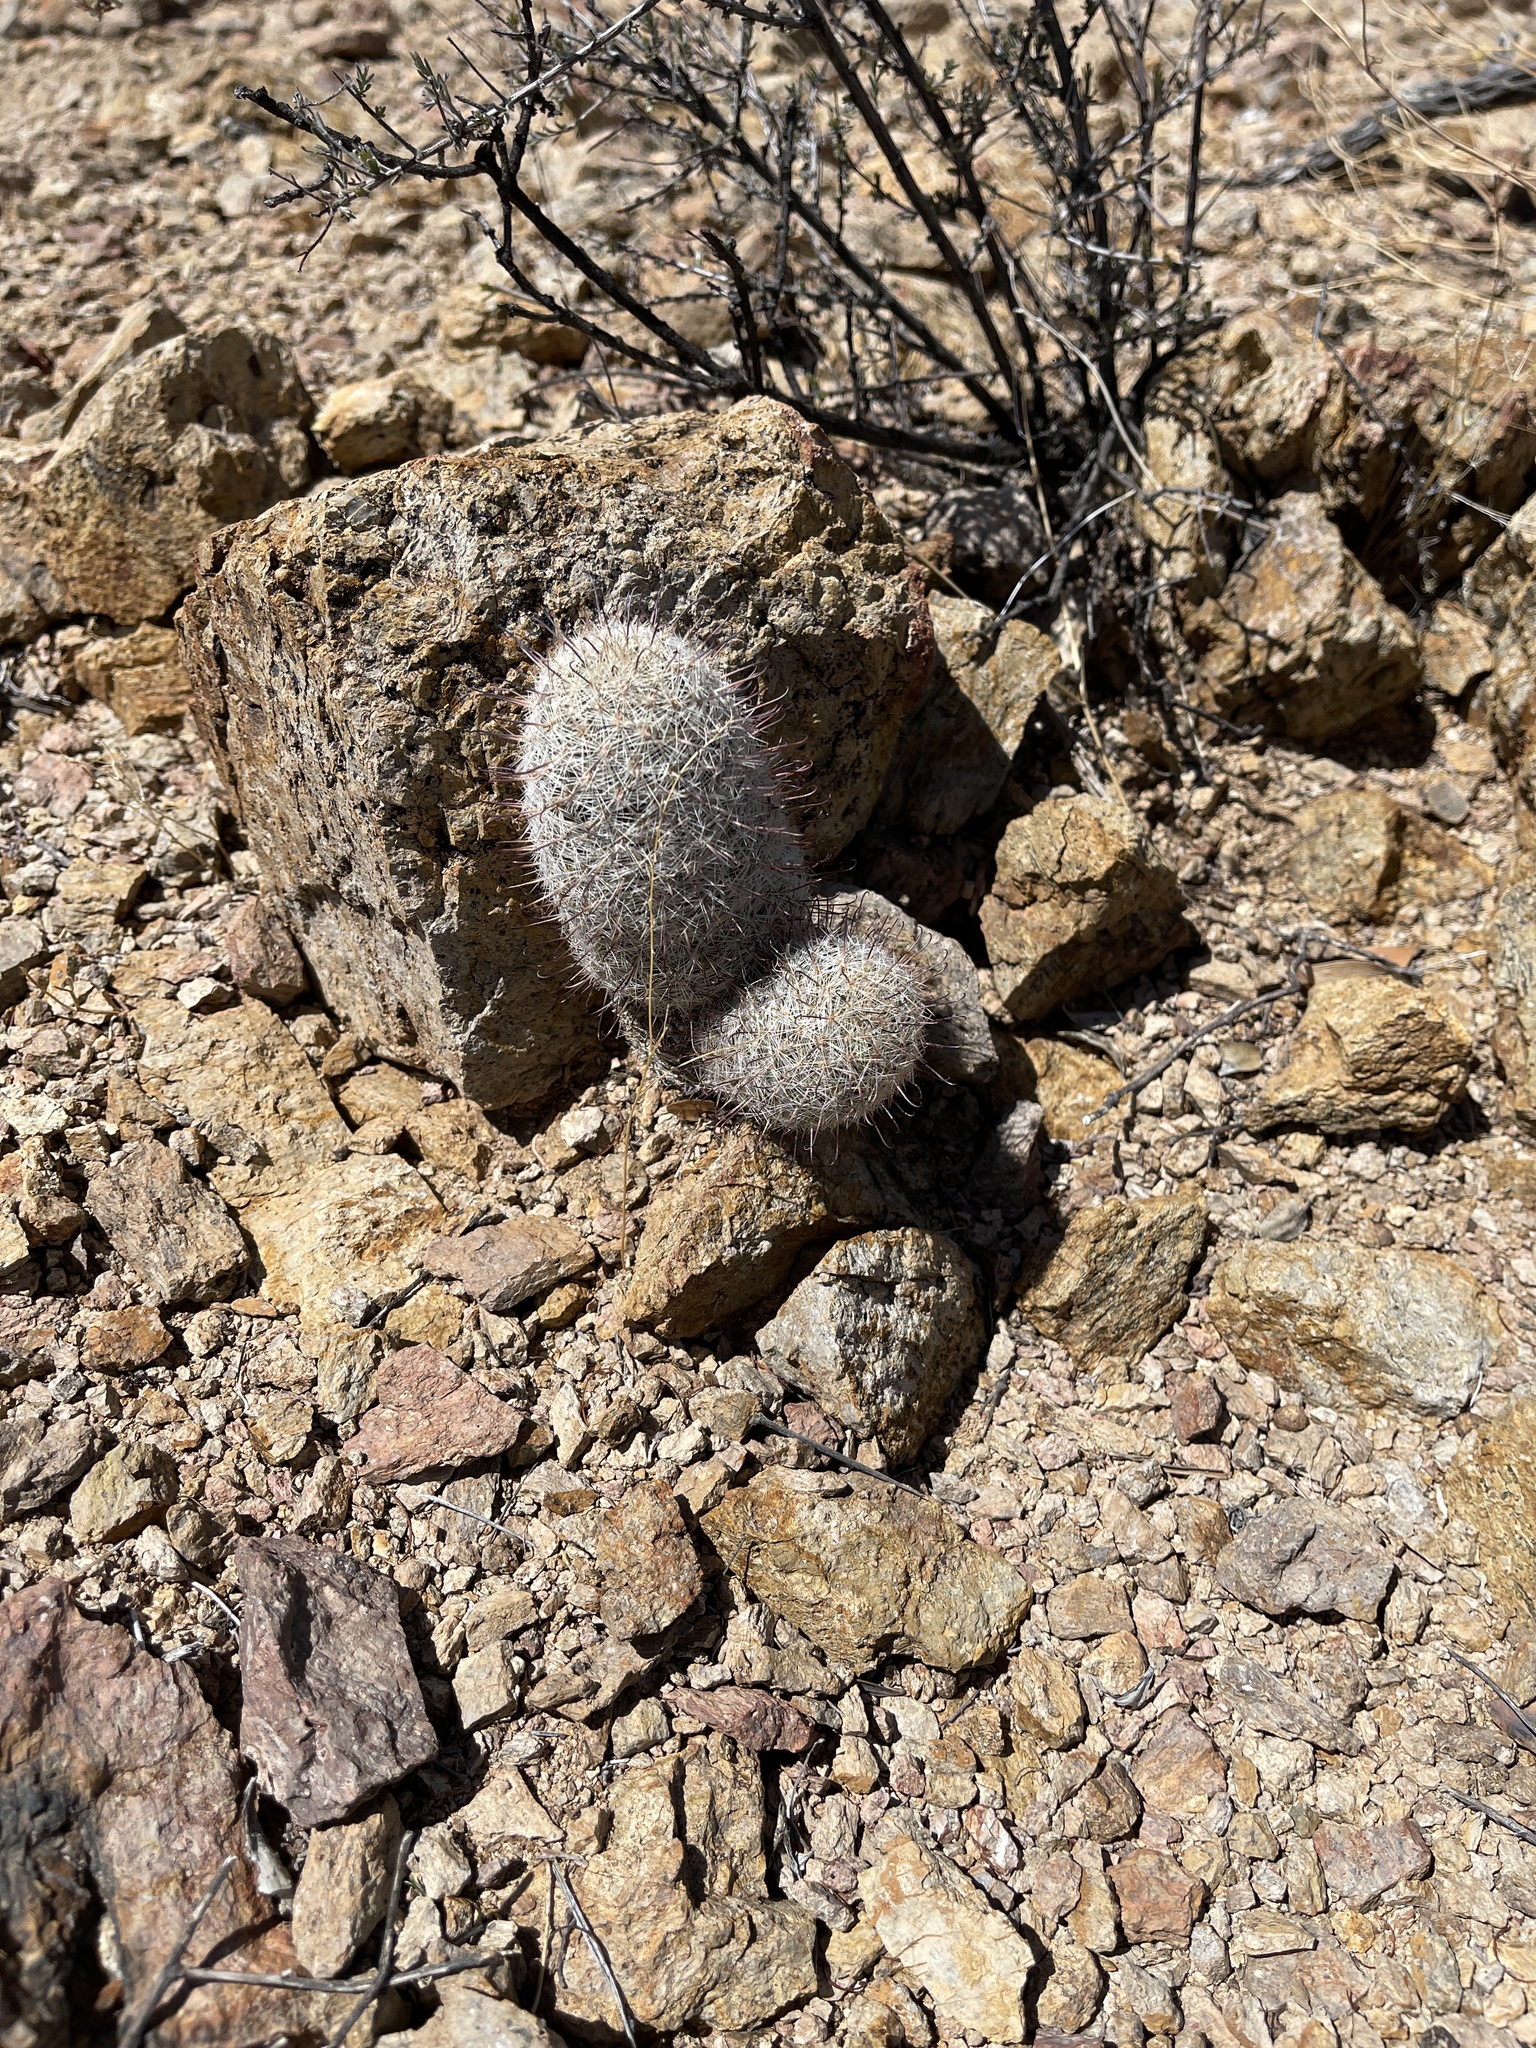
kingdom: Plantae
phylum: Tracheophyta
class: Magnoliopsida
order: Caryophyllales
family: Cactaceae
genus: Cochemiea
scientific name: Cochemiea grahamii
